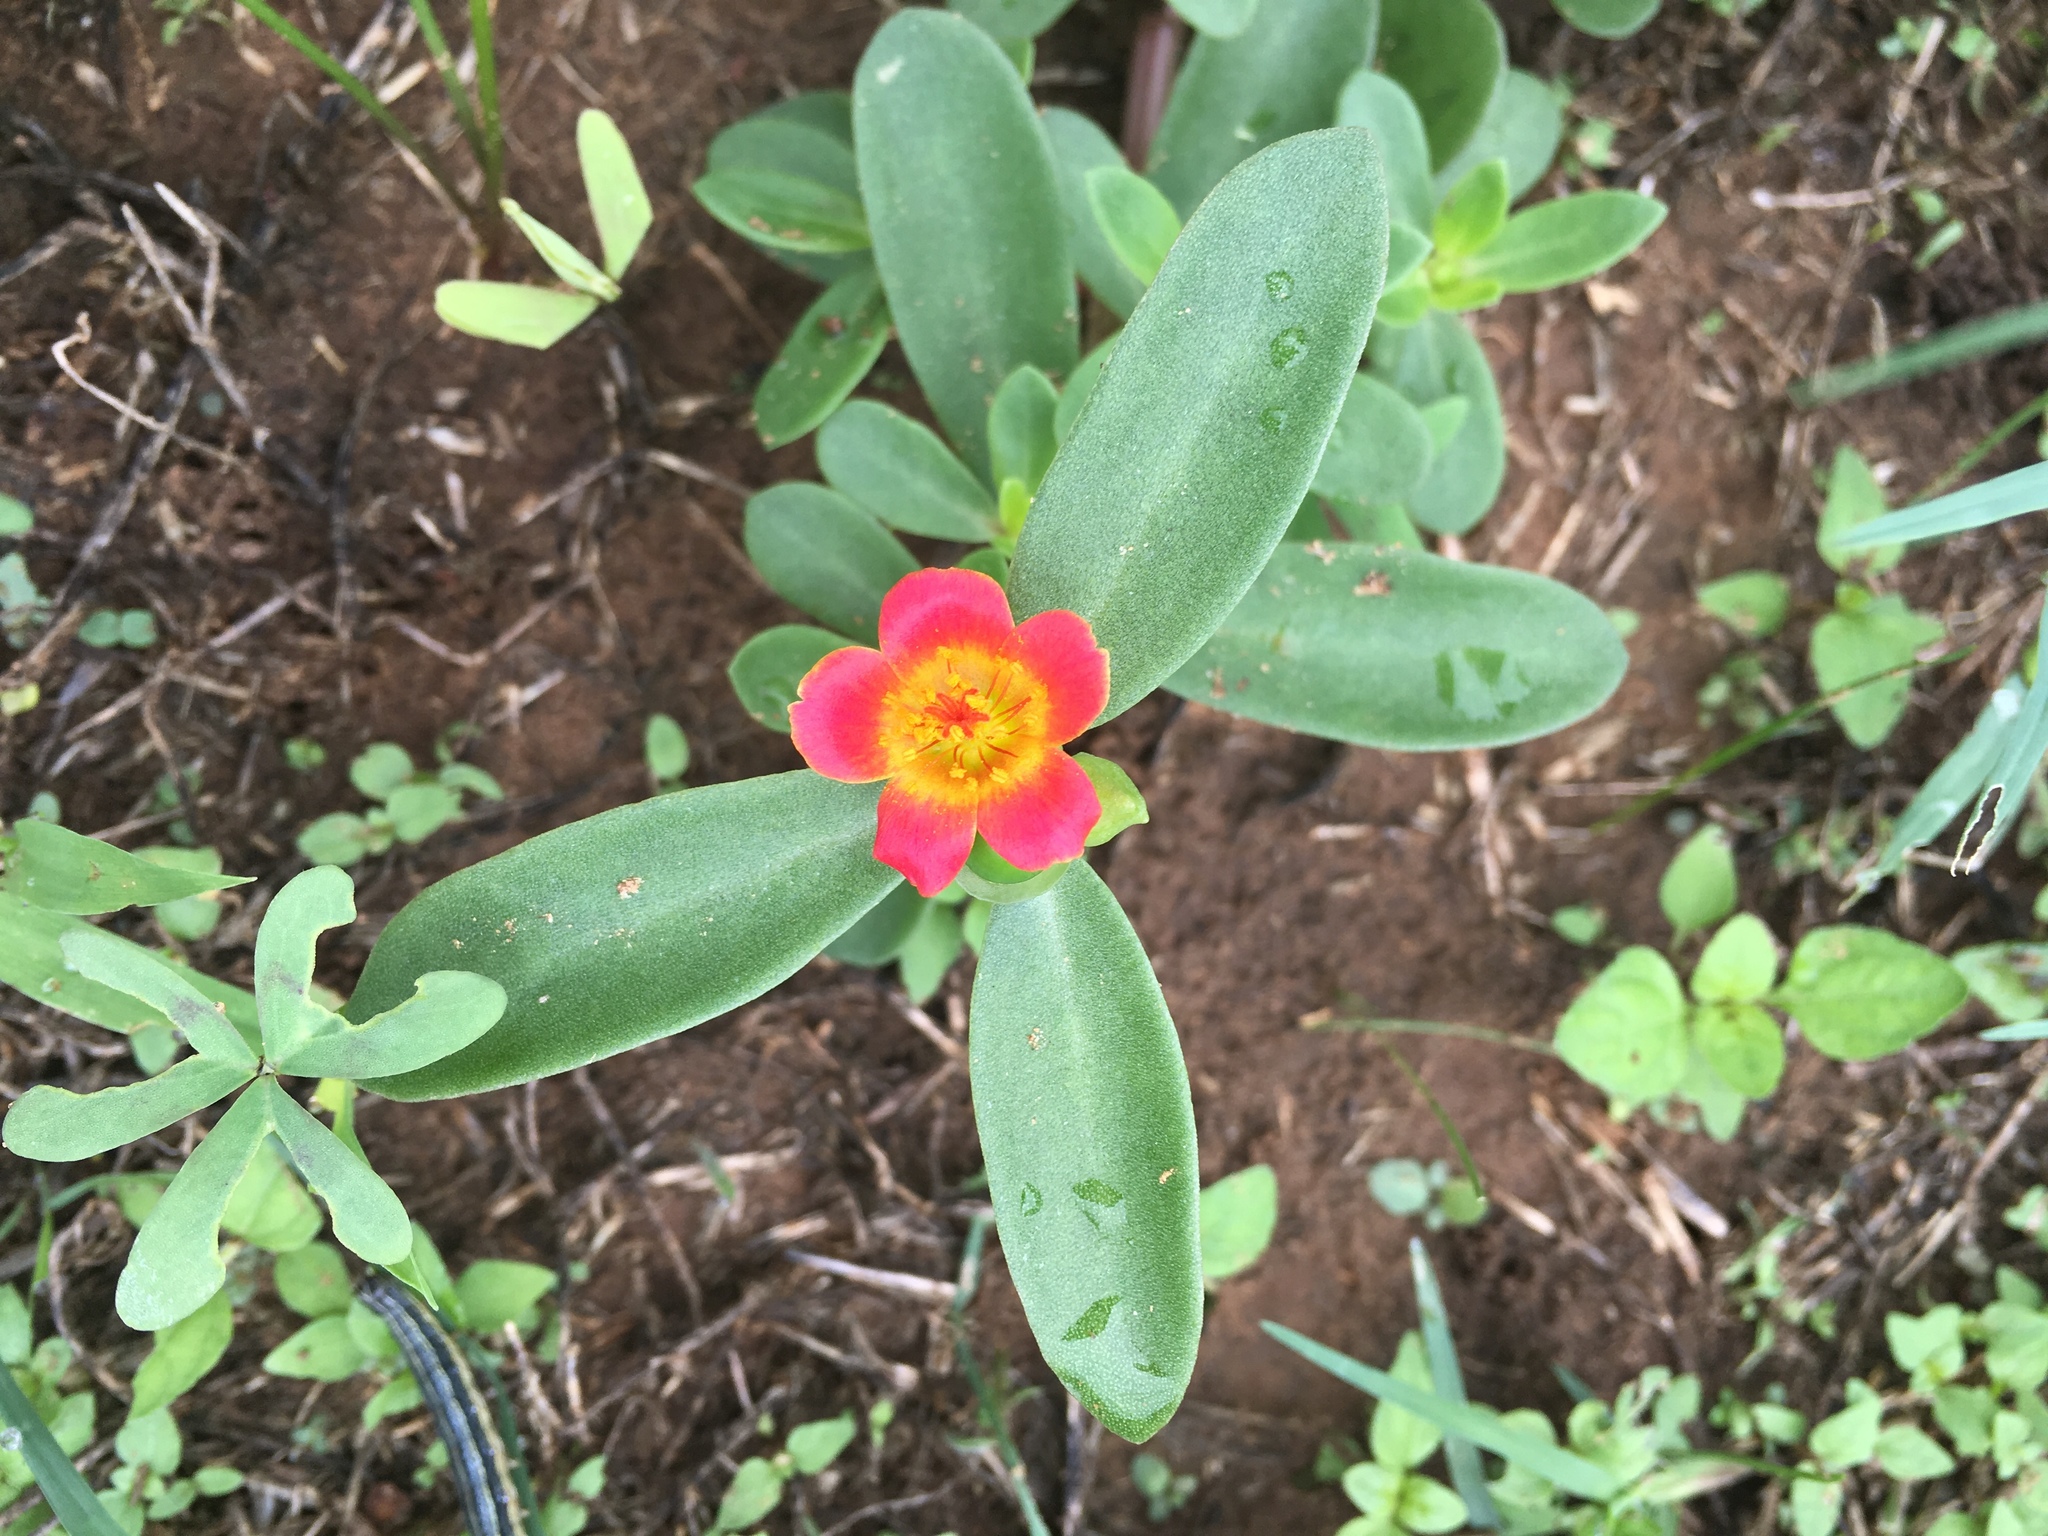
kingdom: Plantae
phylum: Tracheophyta
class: Magnoliopsida
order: Caryophyllales
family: Portulacaceae
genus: Portulaca
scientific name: Portulaca umbraticola
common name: Wingpod purslane
